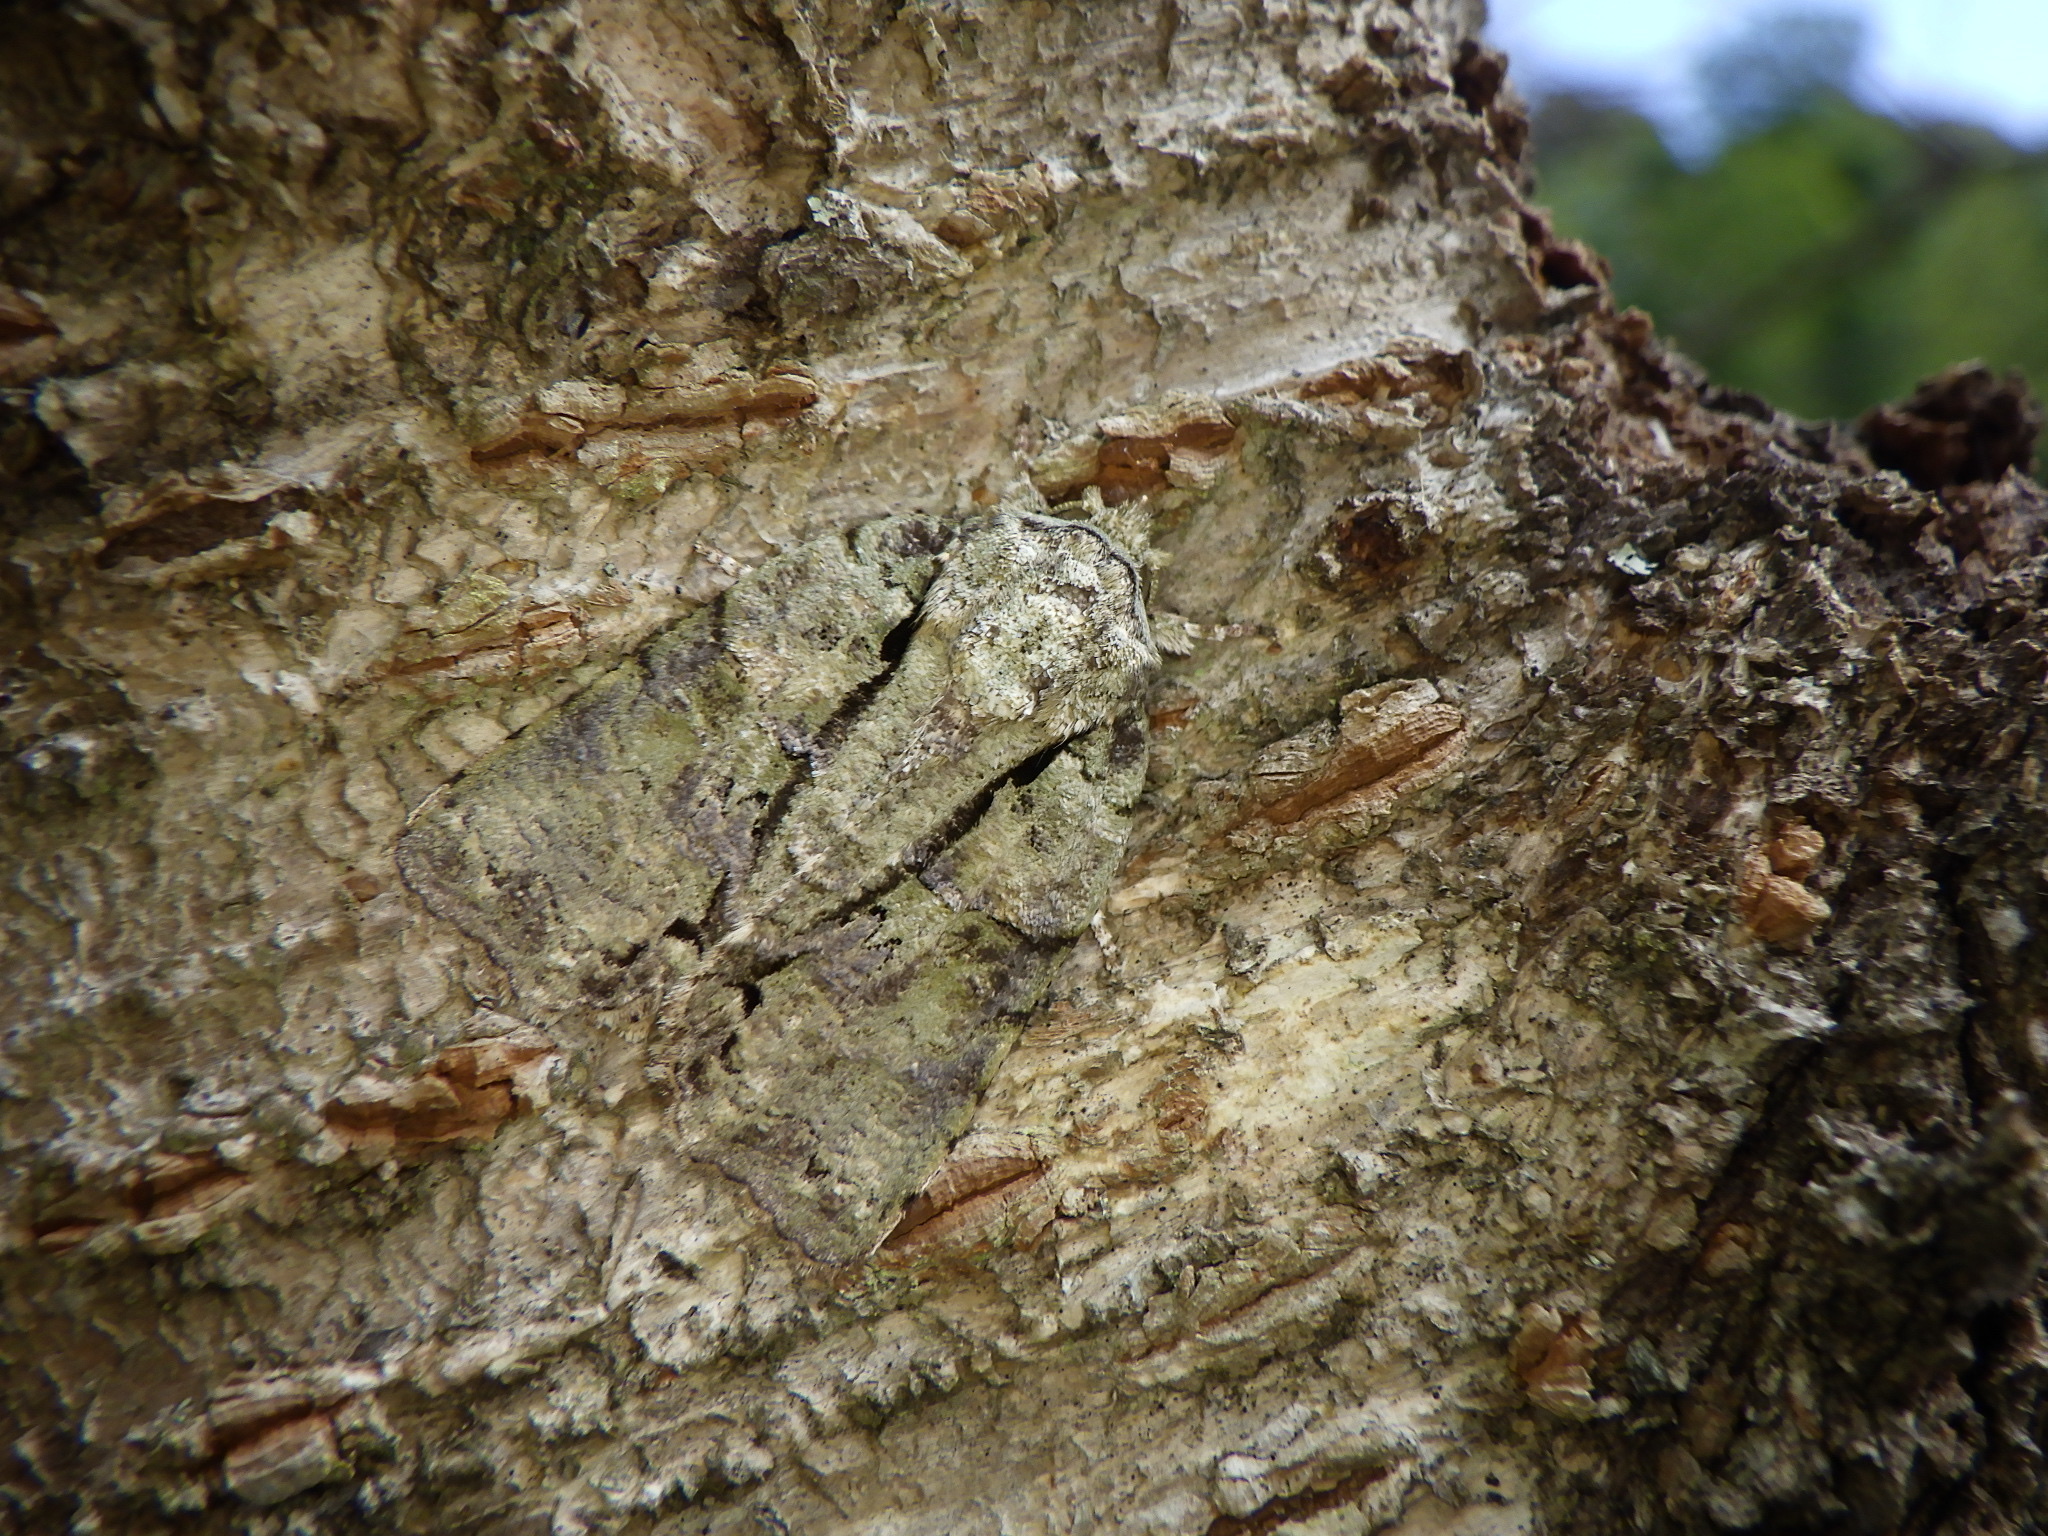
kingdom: Animalia
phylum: Arthropoda
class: Insecta
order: Lepidoptera
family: Nolidae
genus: Blenina
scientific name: Blenina senex
